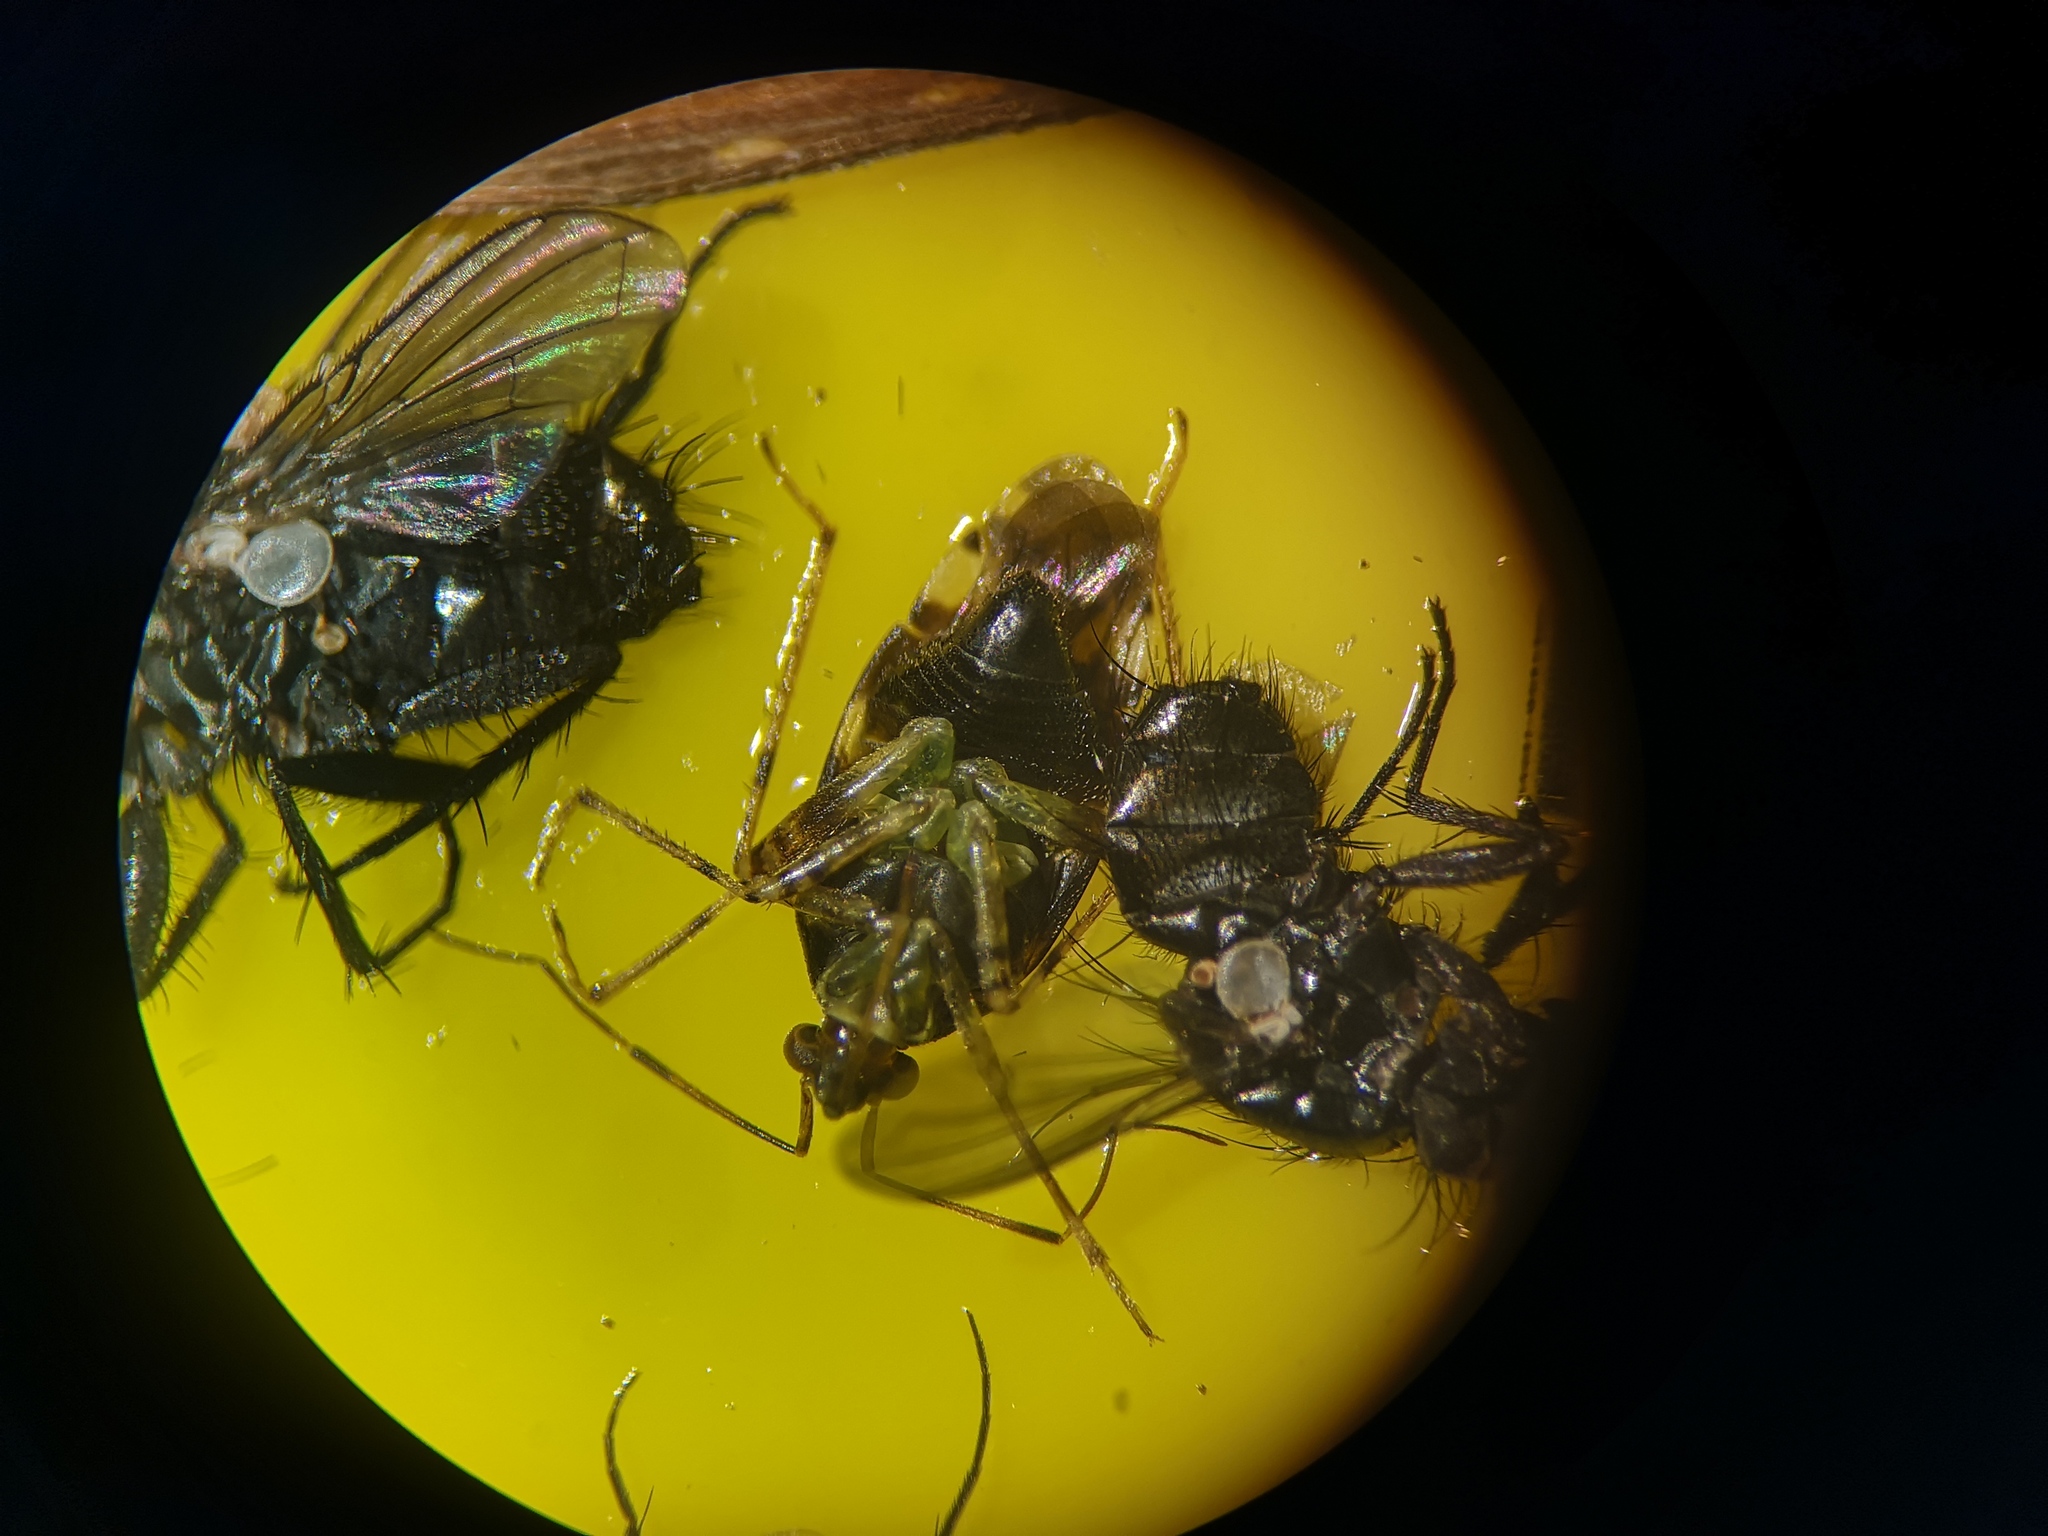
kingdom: Animalia
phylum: Arthropoda
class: Insecta
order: Hemiptera
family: Miridae
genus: Liocoris
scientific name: Liocoris tripustulatus
